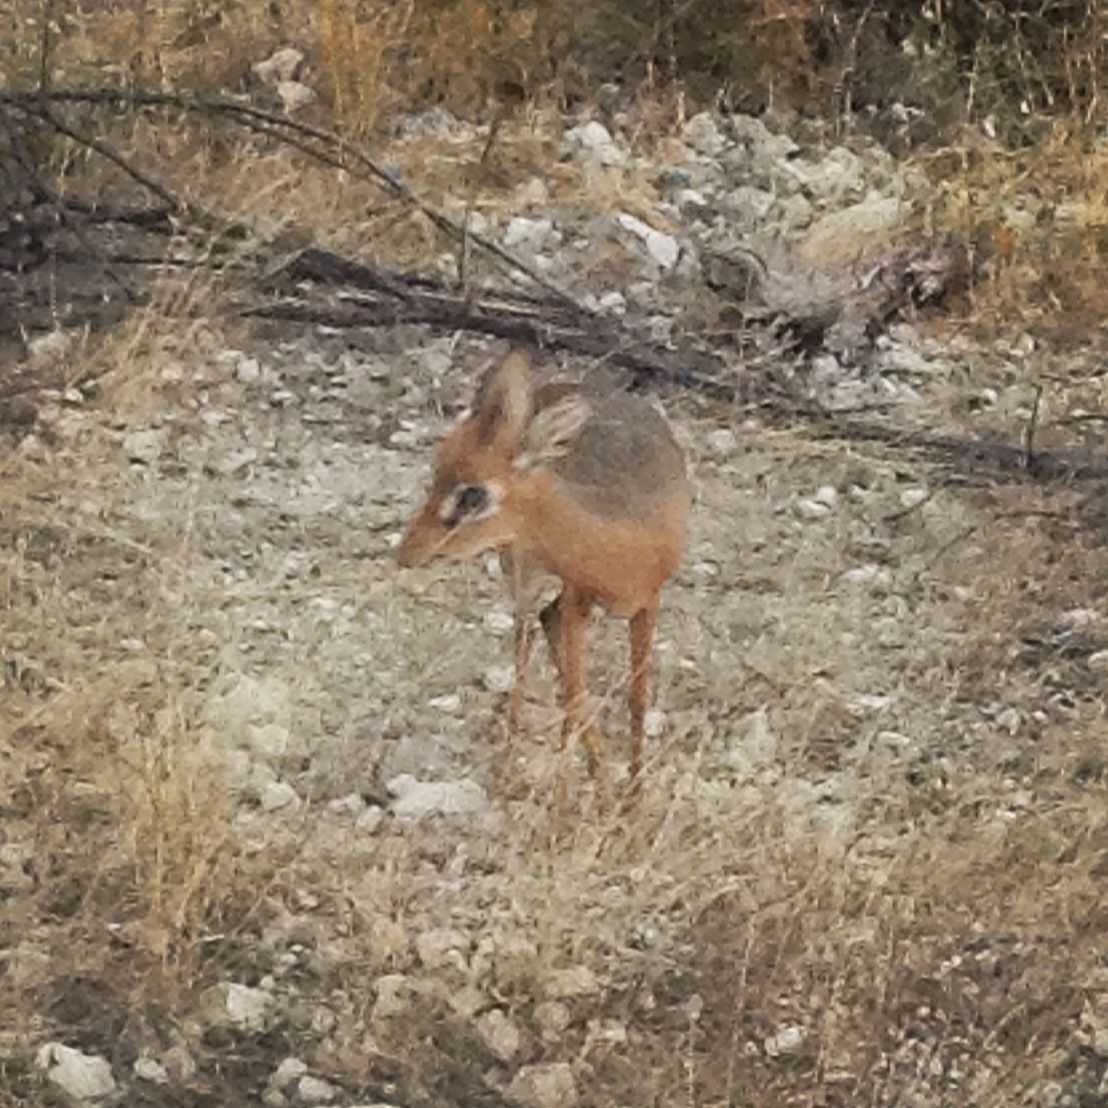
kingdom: Animalia
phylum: Chordata
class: Mammalia
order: Artiodactyla
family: Bovidae
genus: Madoqua
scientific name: Madoqua kirkii
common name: Kirk's dik-dik
